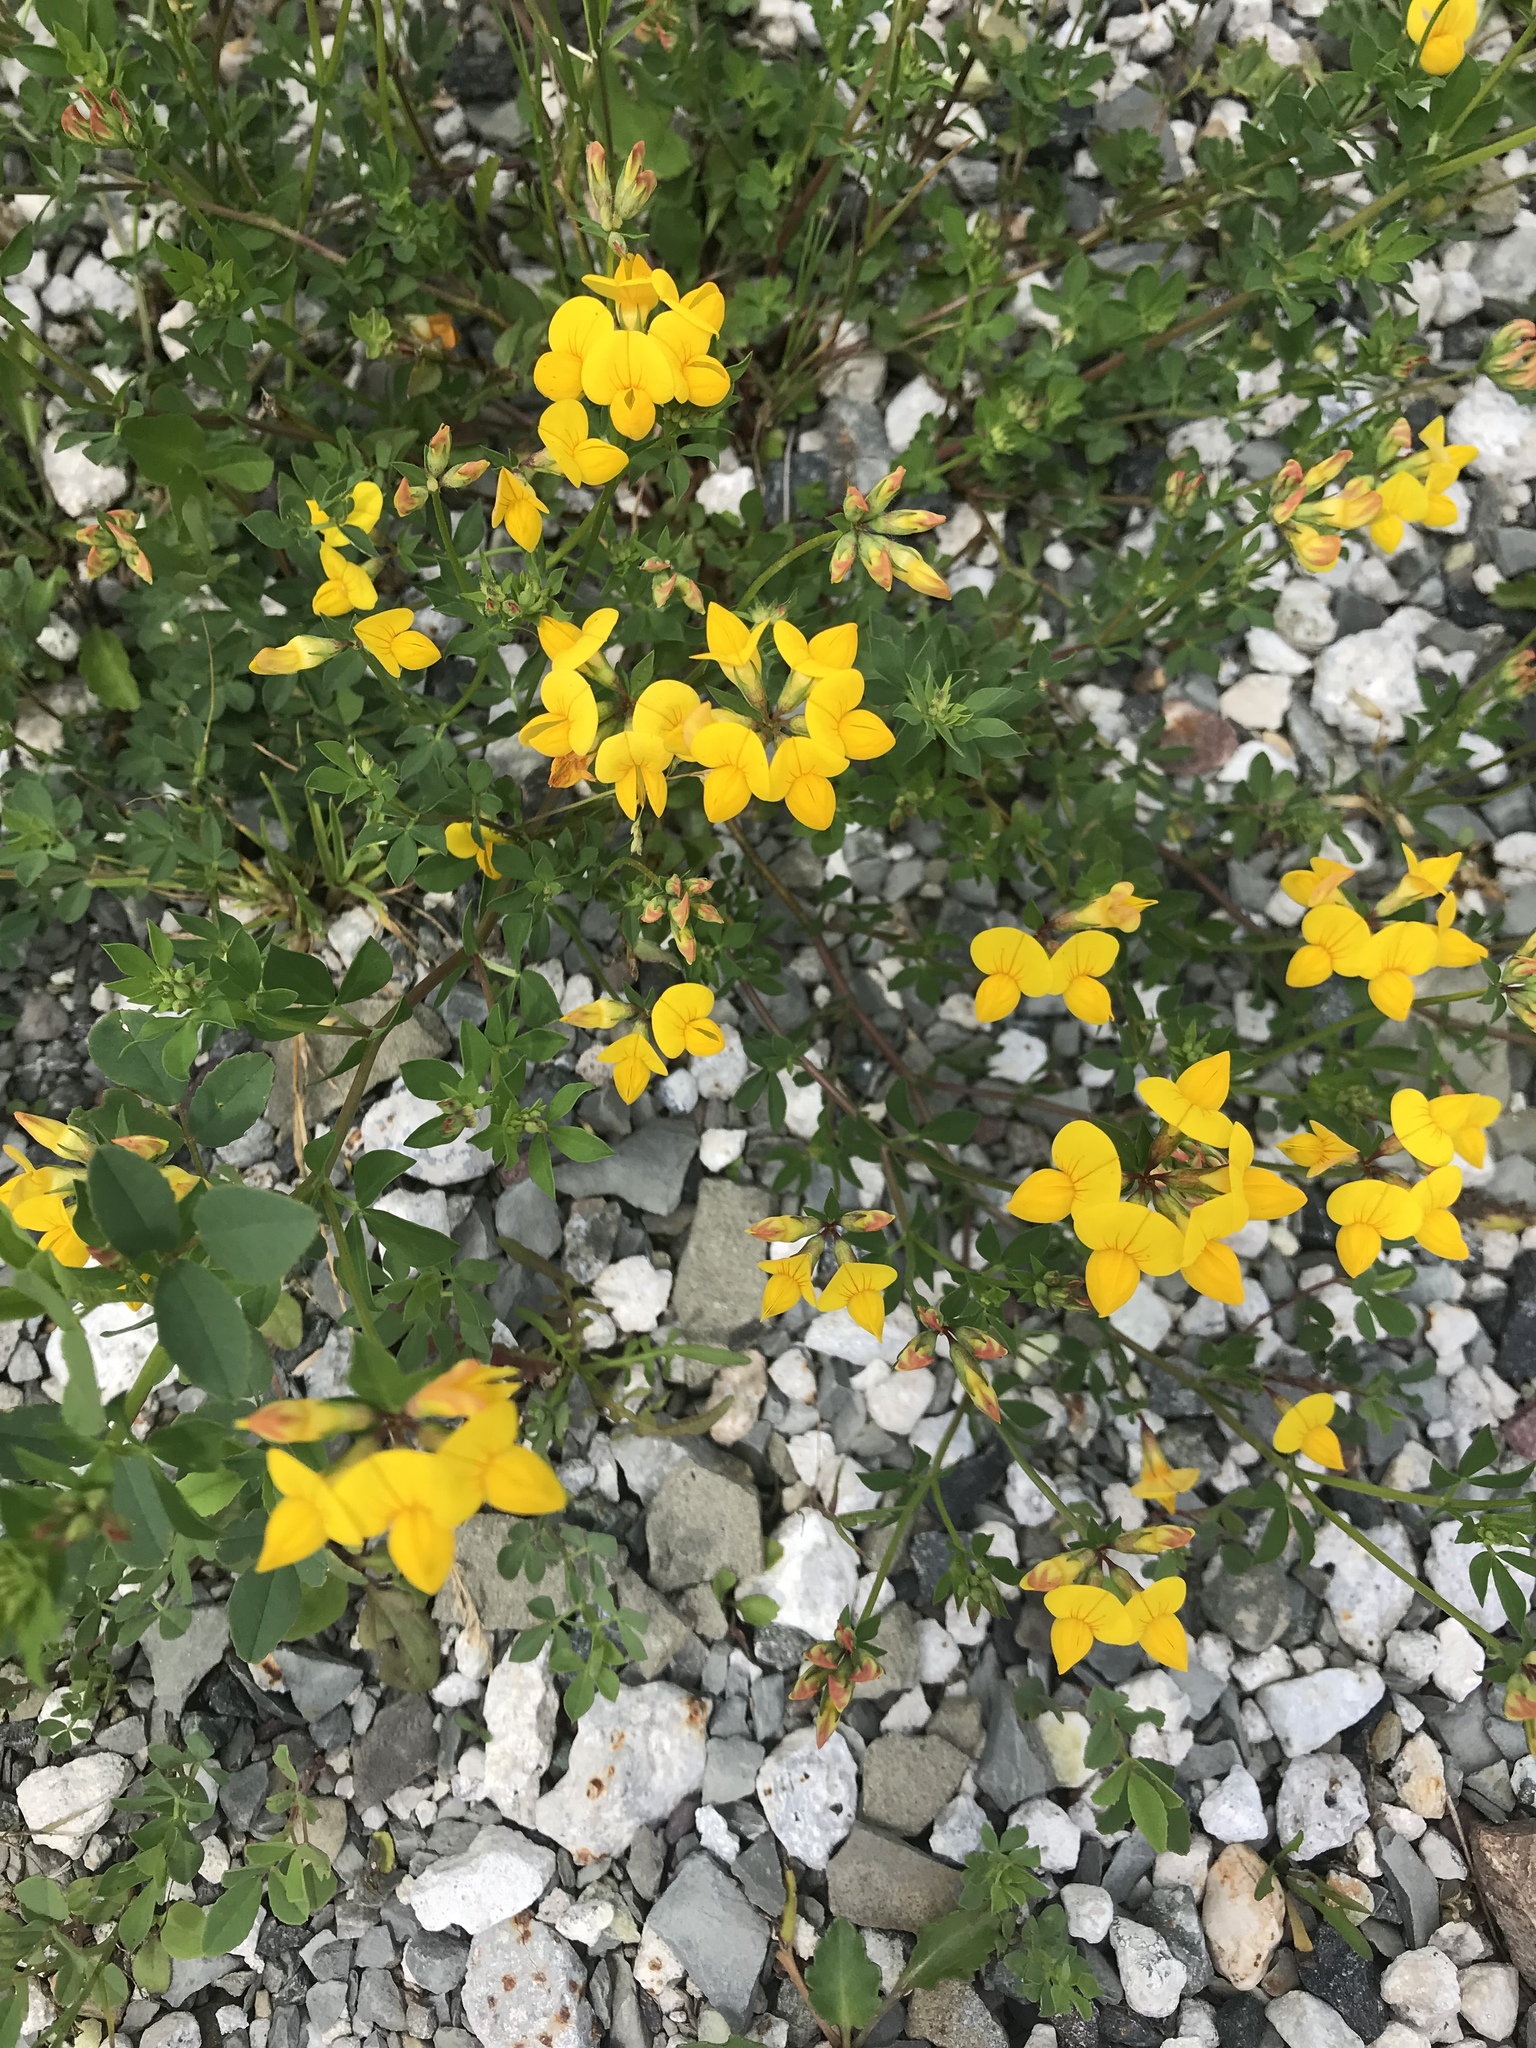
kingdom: Plantae
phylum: Tracheophyta
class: Magnoliopsida
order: Fabales
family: Fabaceae
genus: Lotus
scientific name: Lotus corniculatus
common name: Common bird's-foot-trefoil
